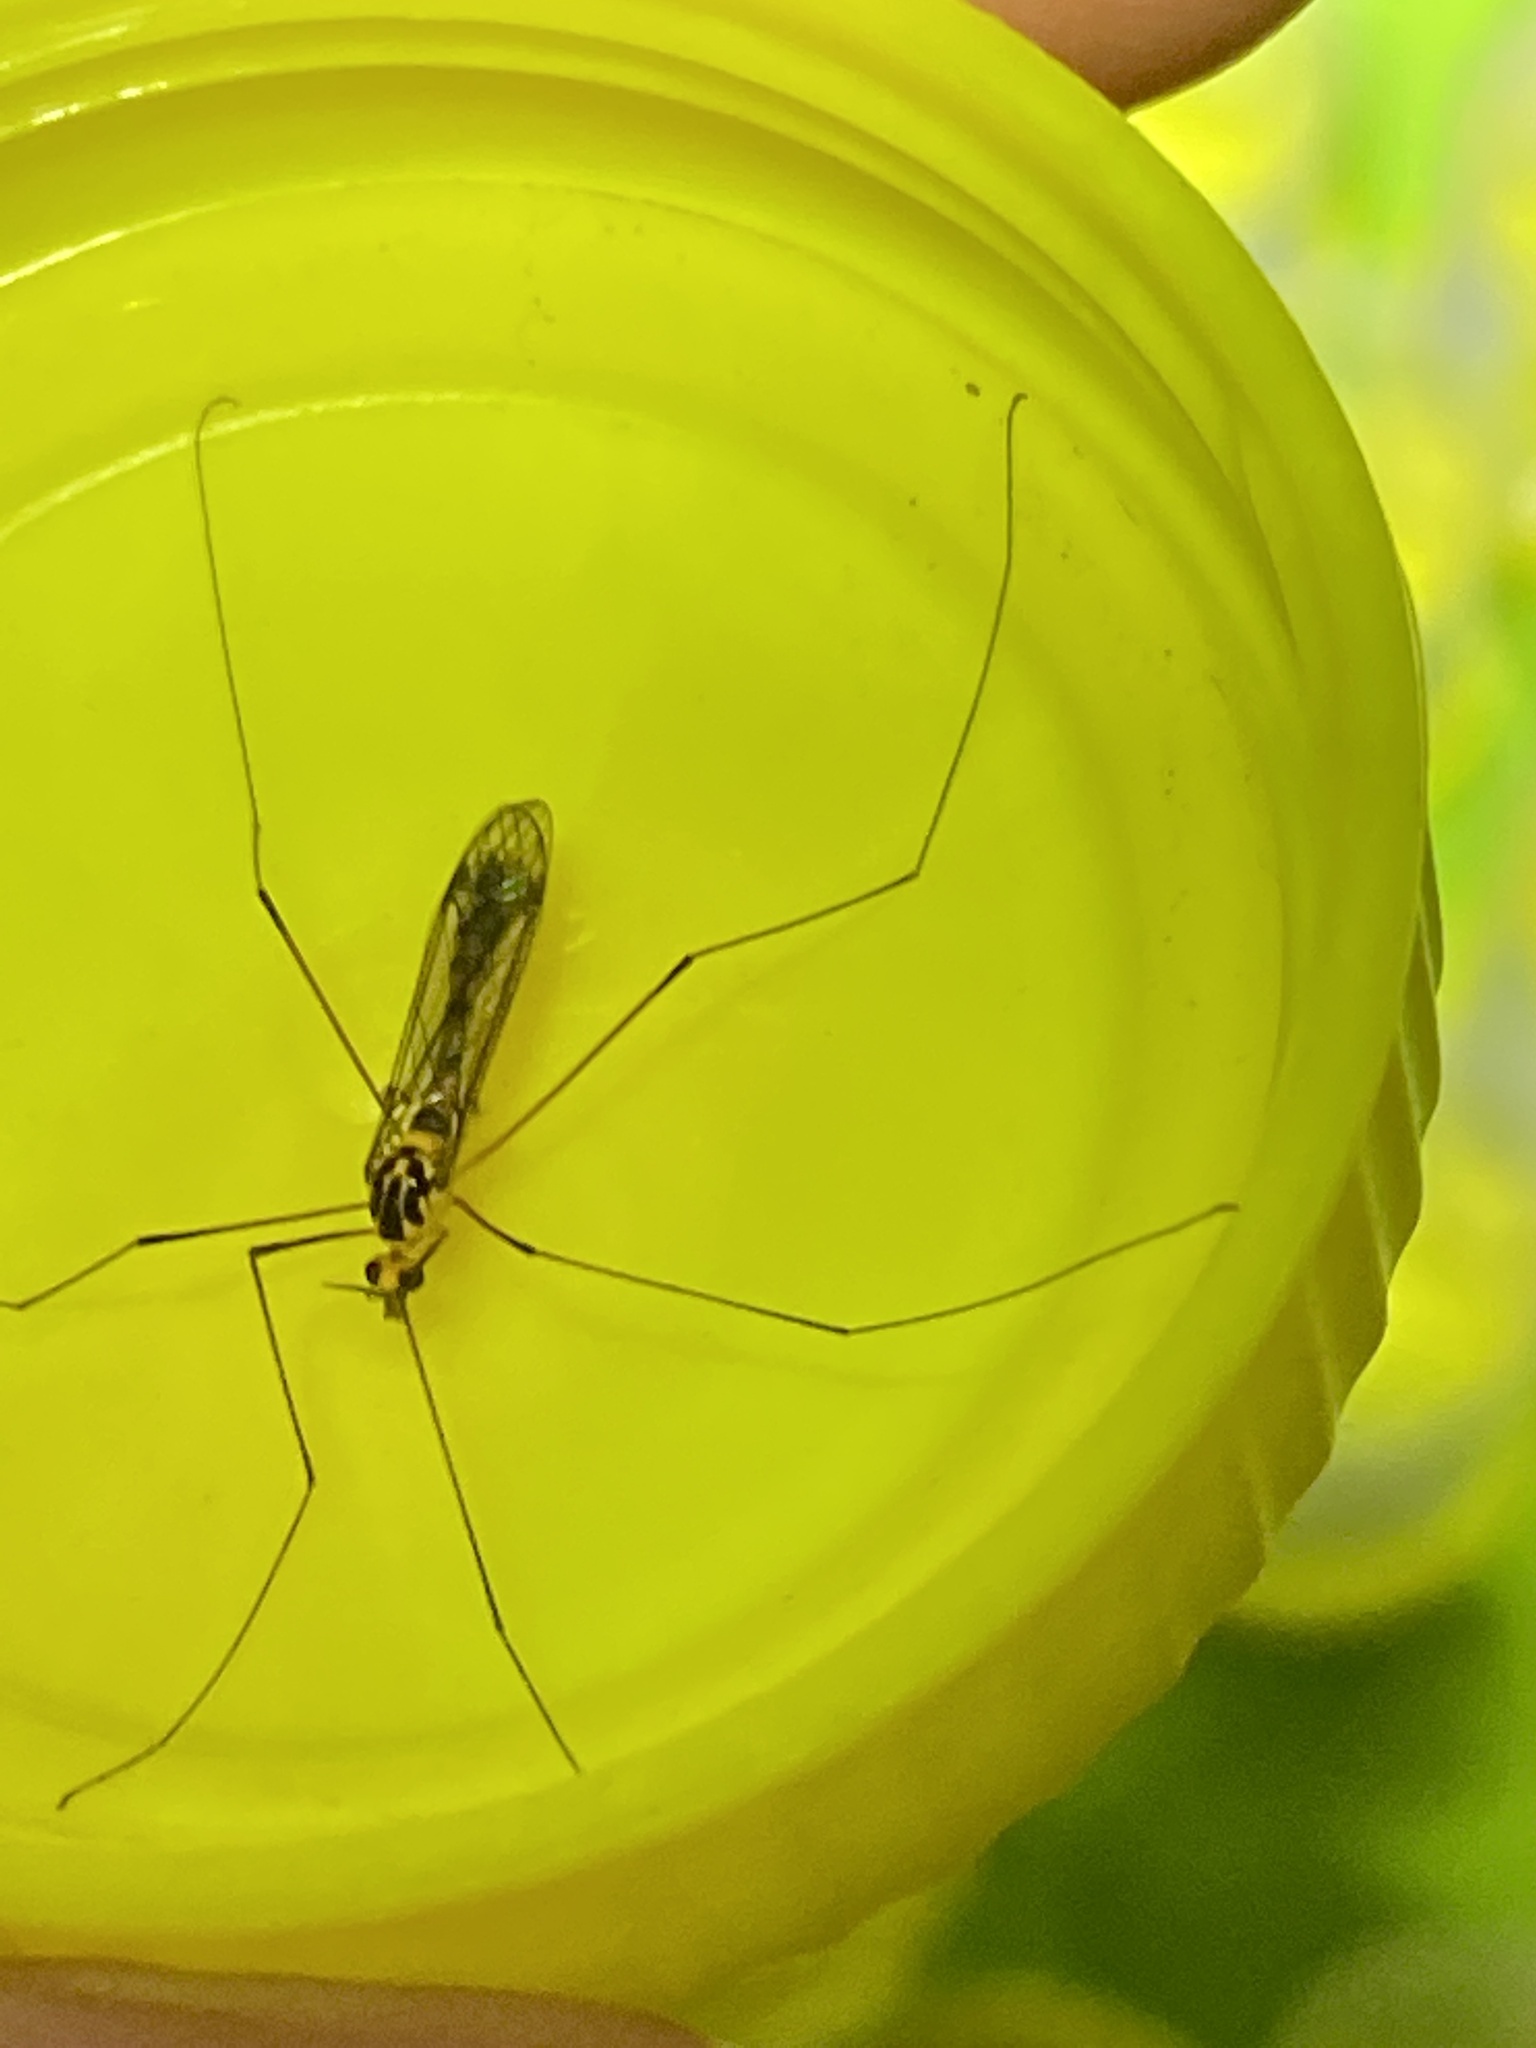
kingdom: Animalia
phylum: Arthropoda
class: Insecta
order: Diptera
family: Tipulidae
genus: Nephrotoma
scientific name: Nephrotoma australasiae
